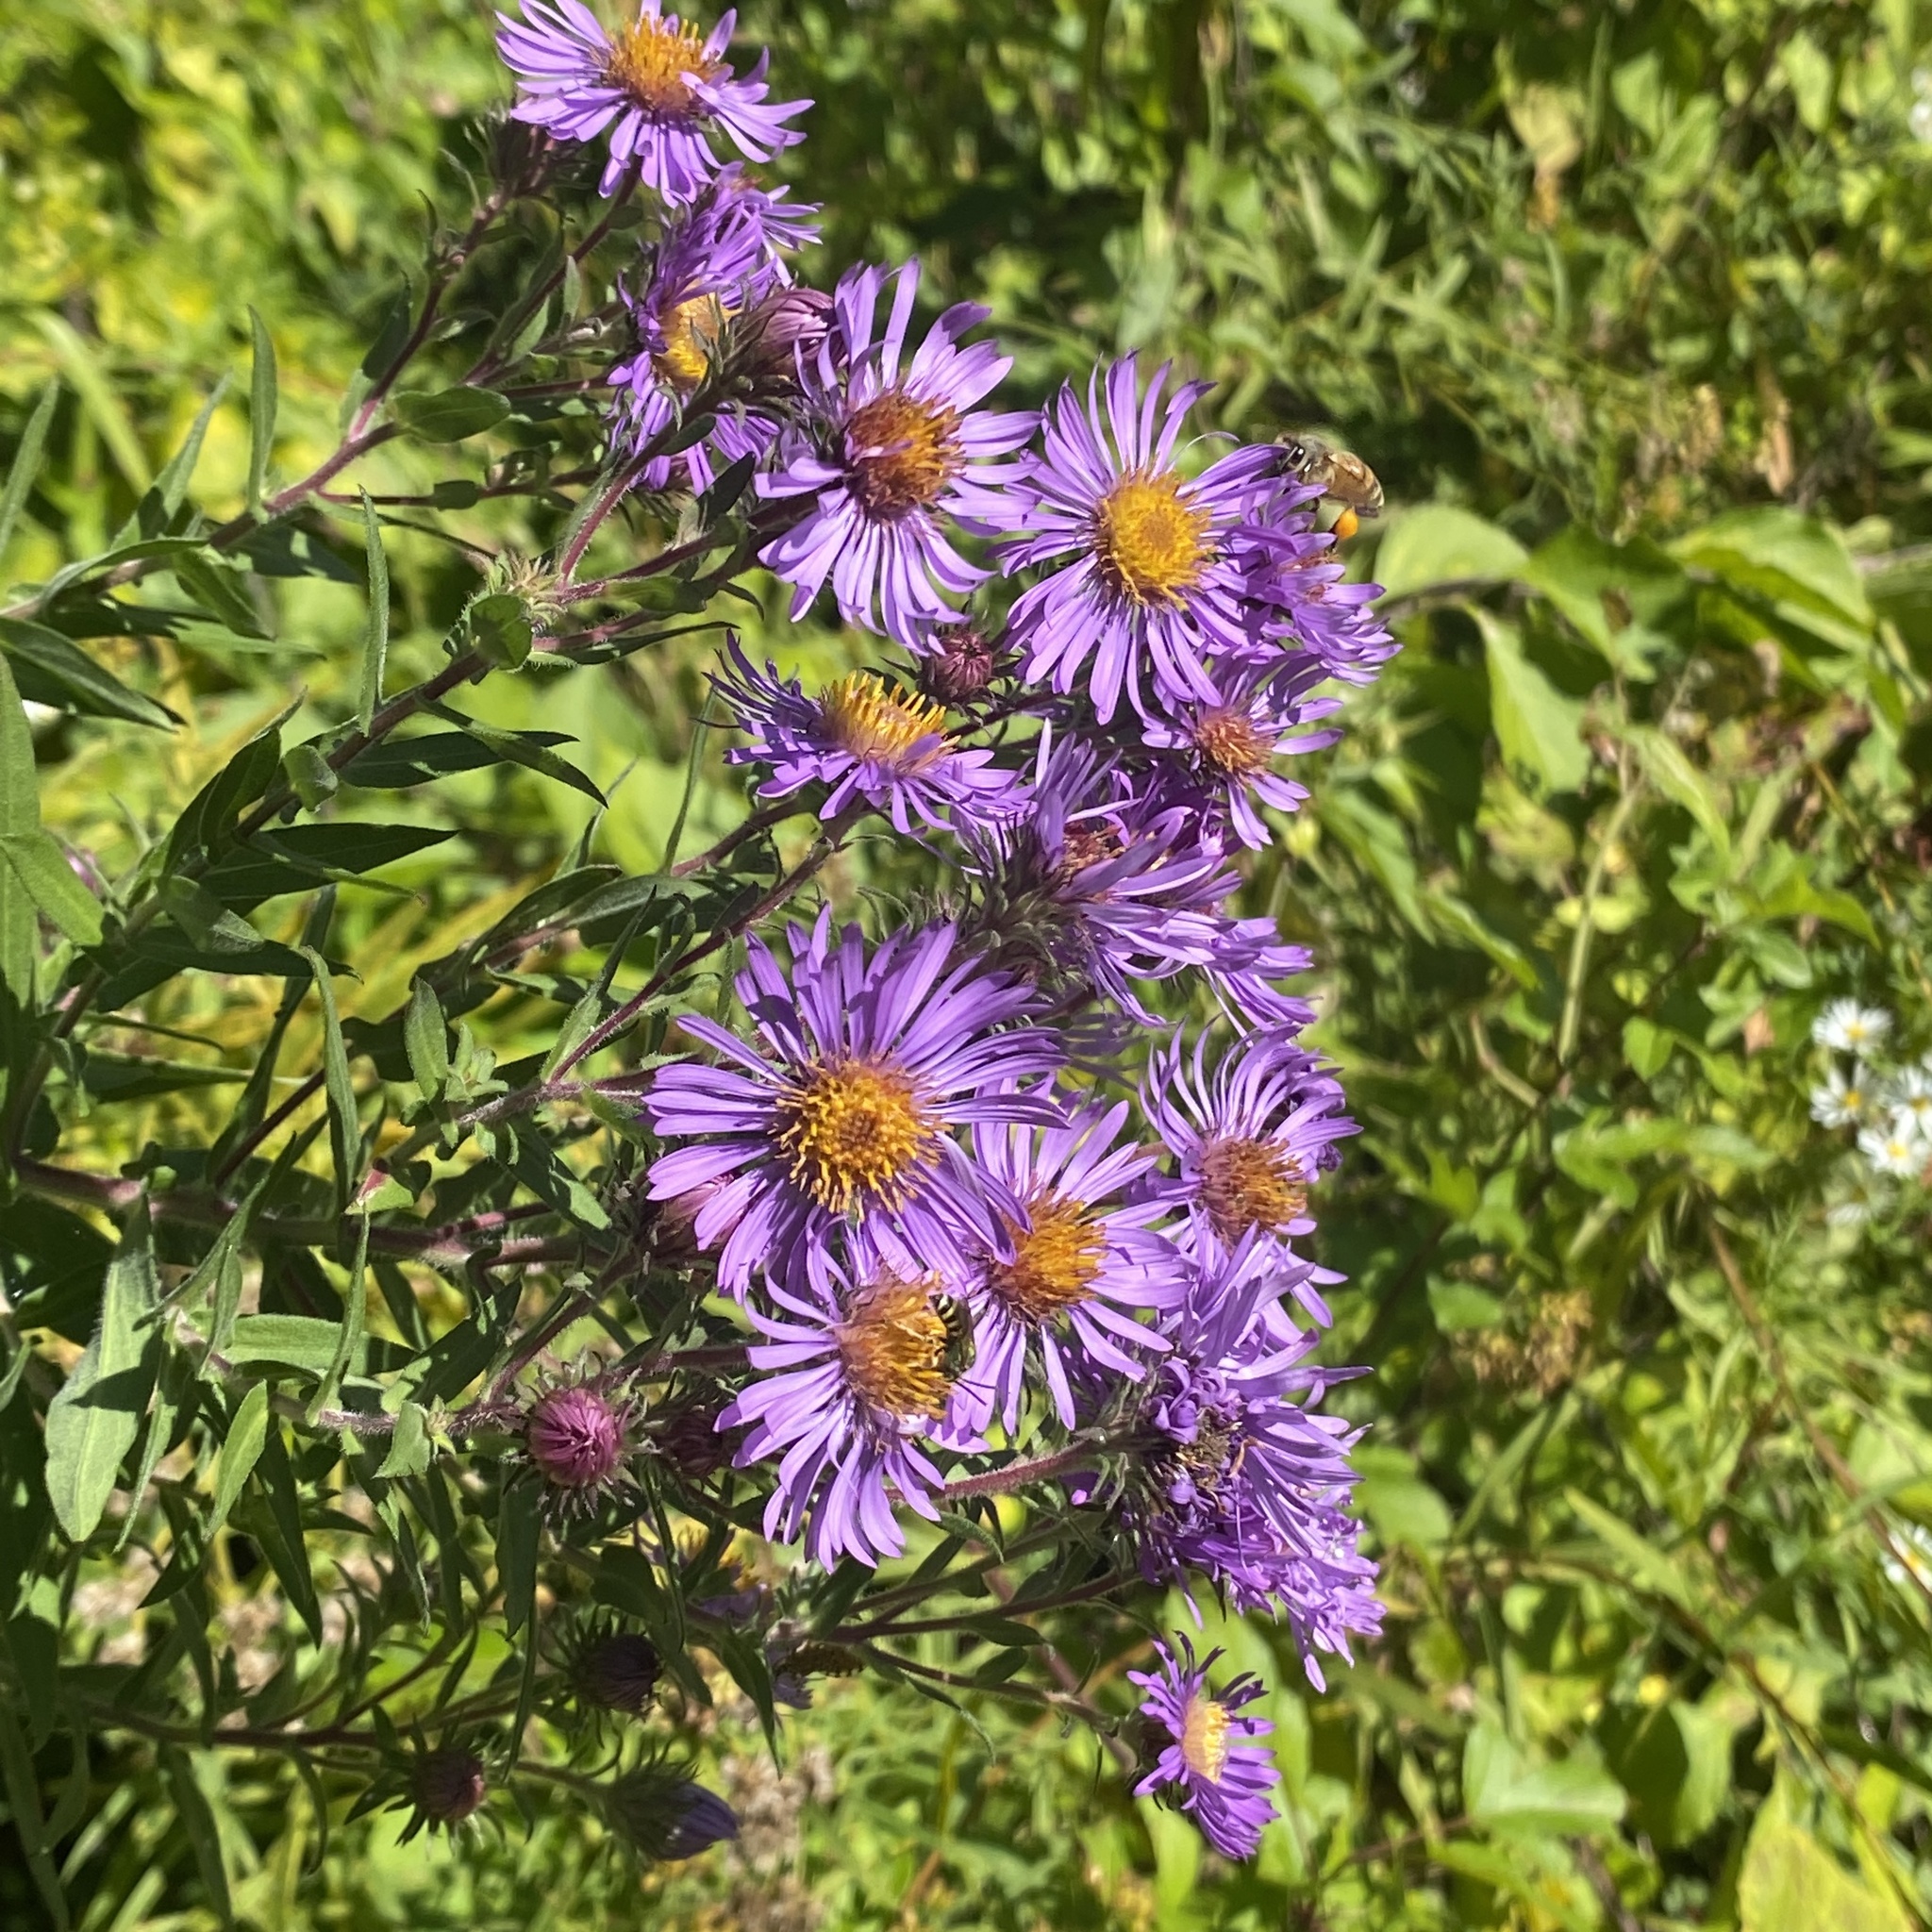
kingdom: Plantae
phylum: Tracheophyta
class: Magnoliopsida
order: Asterales
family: Asteraceae
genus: Symphyotrichum
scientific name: Symphyotrichum novae-angliae
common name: Michaelmas daisy
